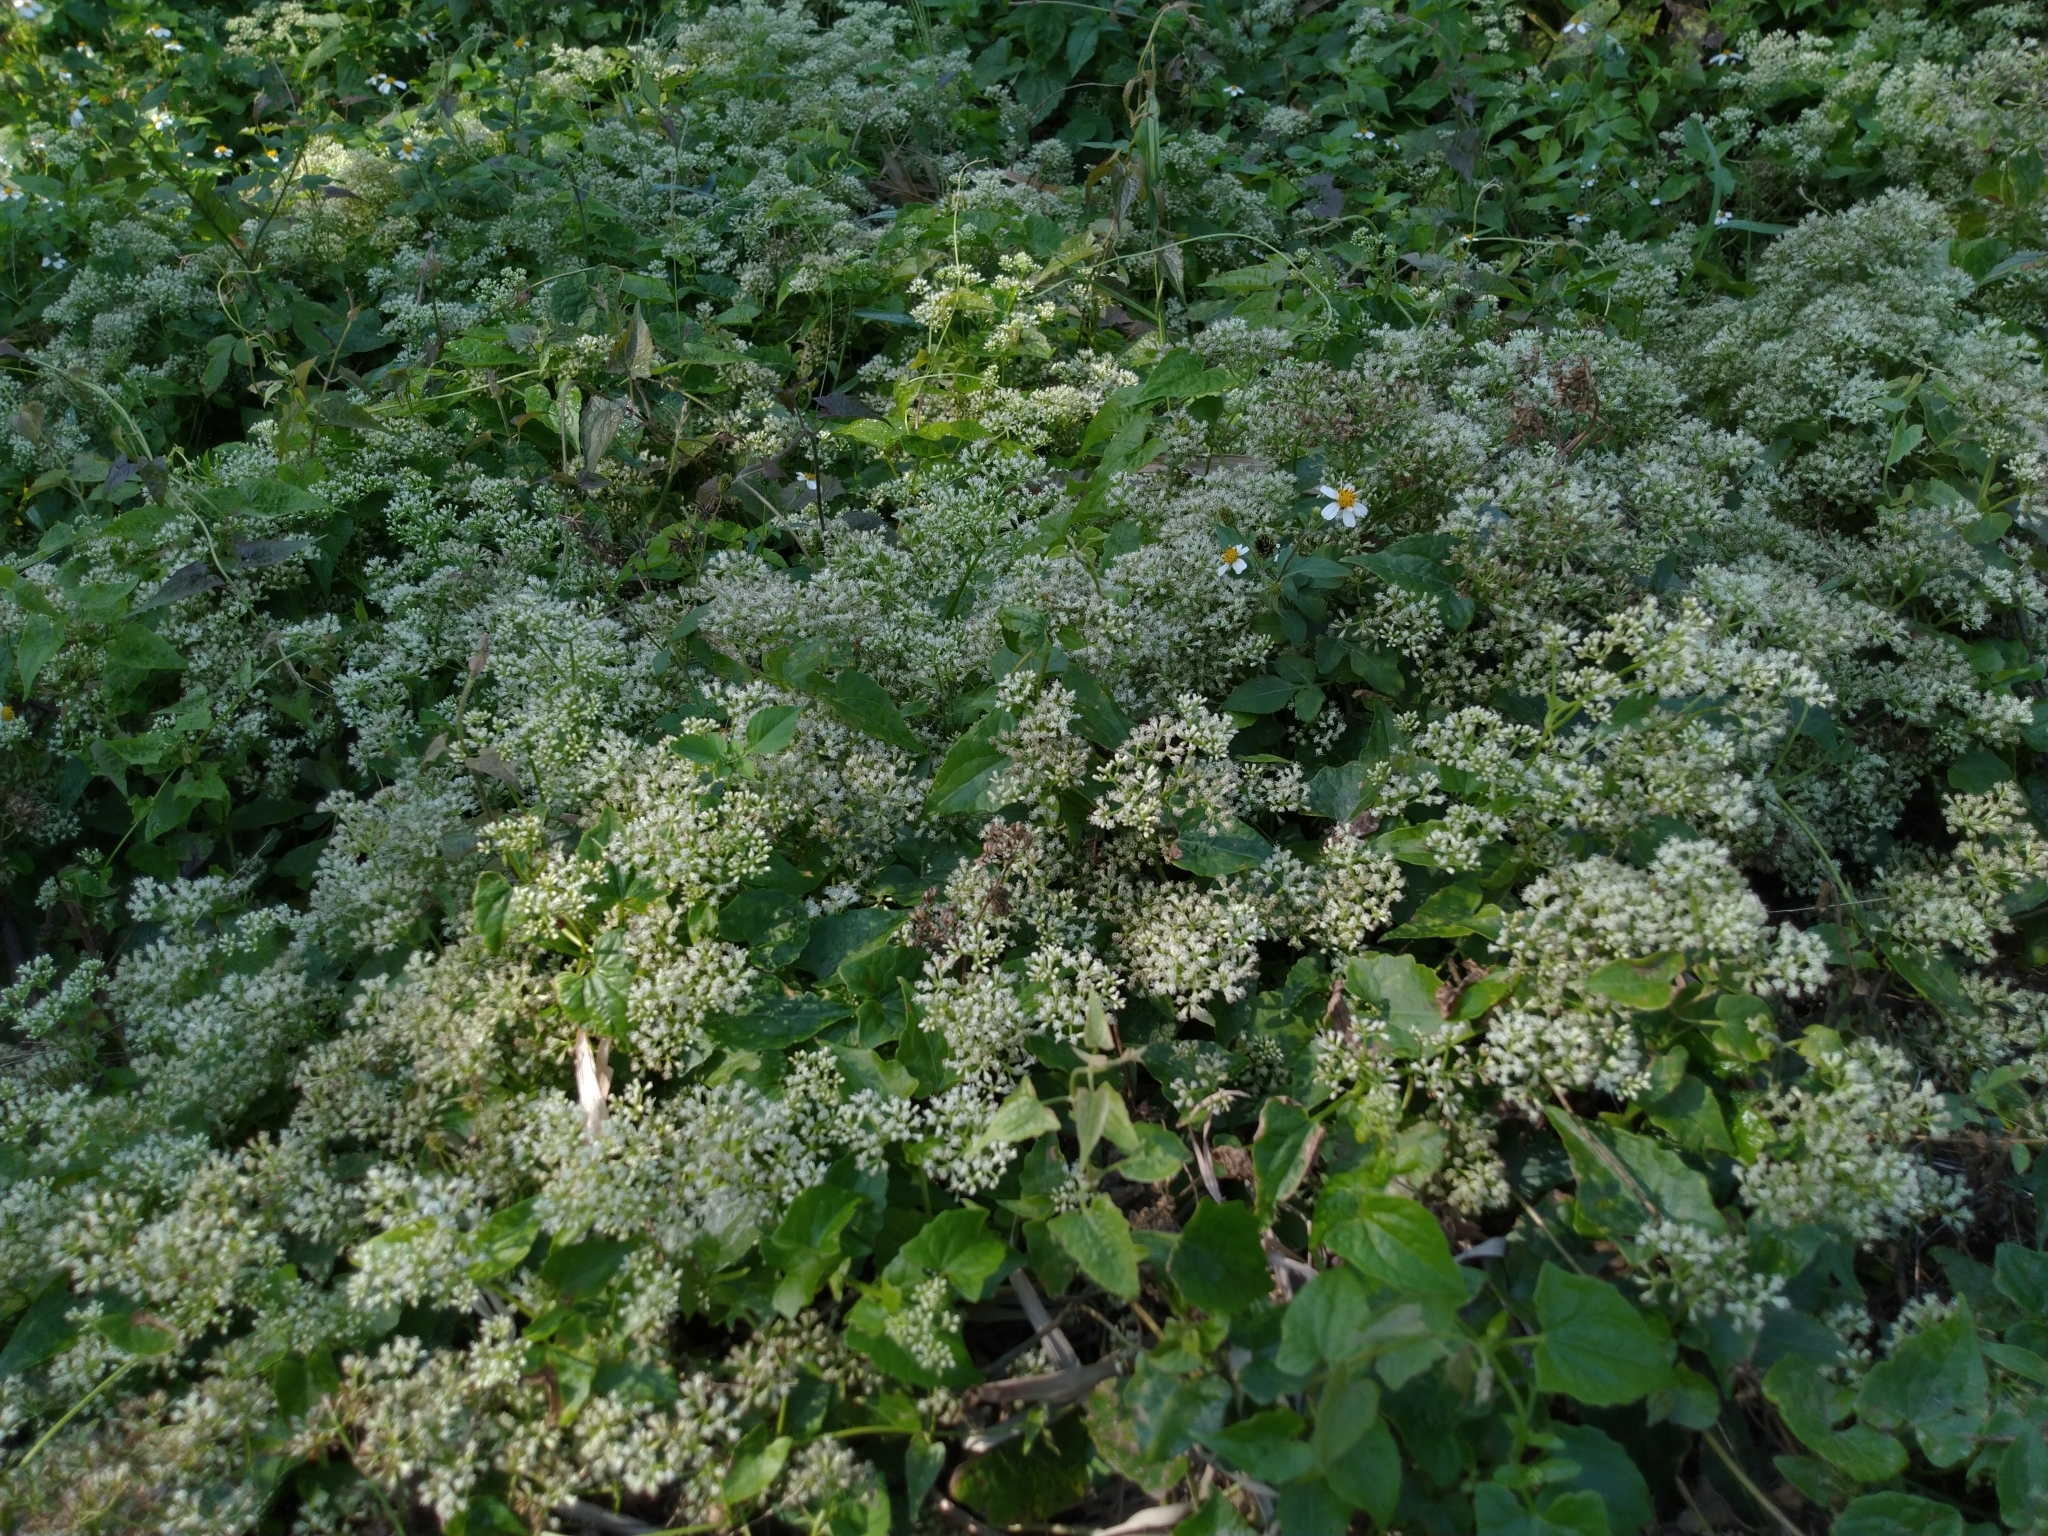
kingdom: Plantae
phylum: Tracheophyta
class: Magnoliopsida
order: Asterales
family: Asteraceae
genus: Mikania
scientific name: Mikania micrantha
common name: Mile-a-minute
